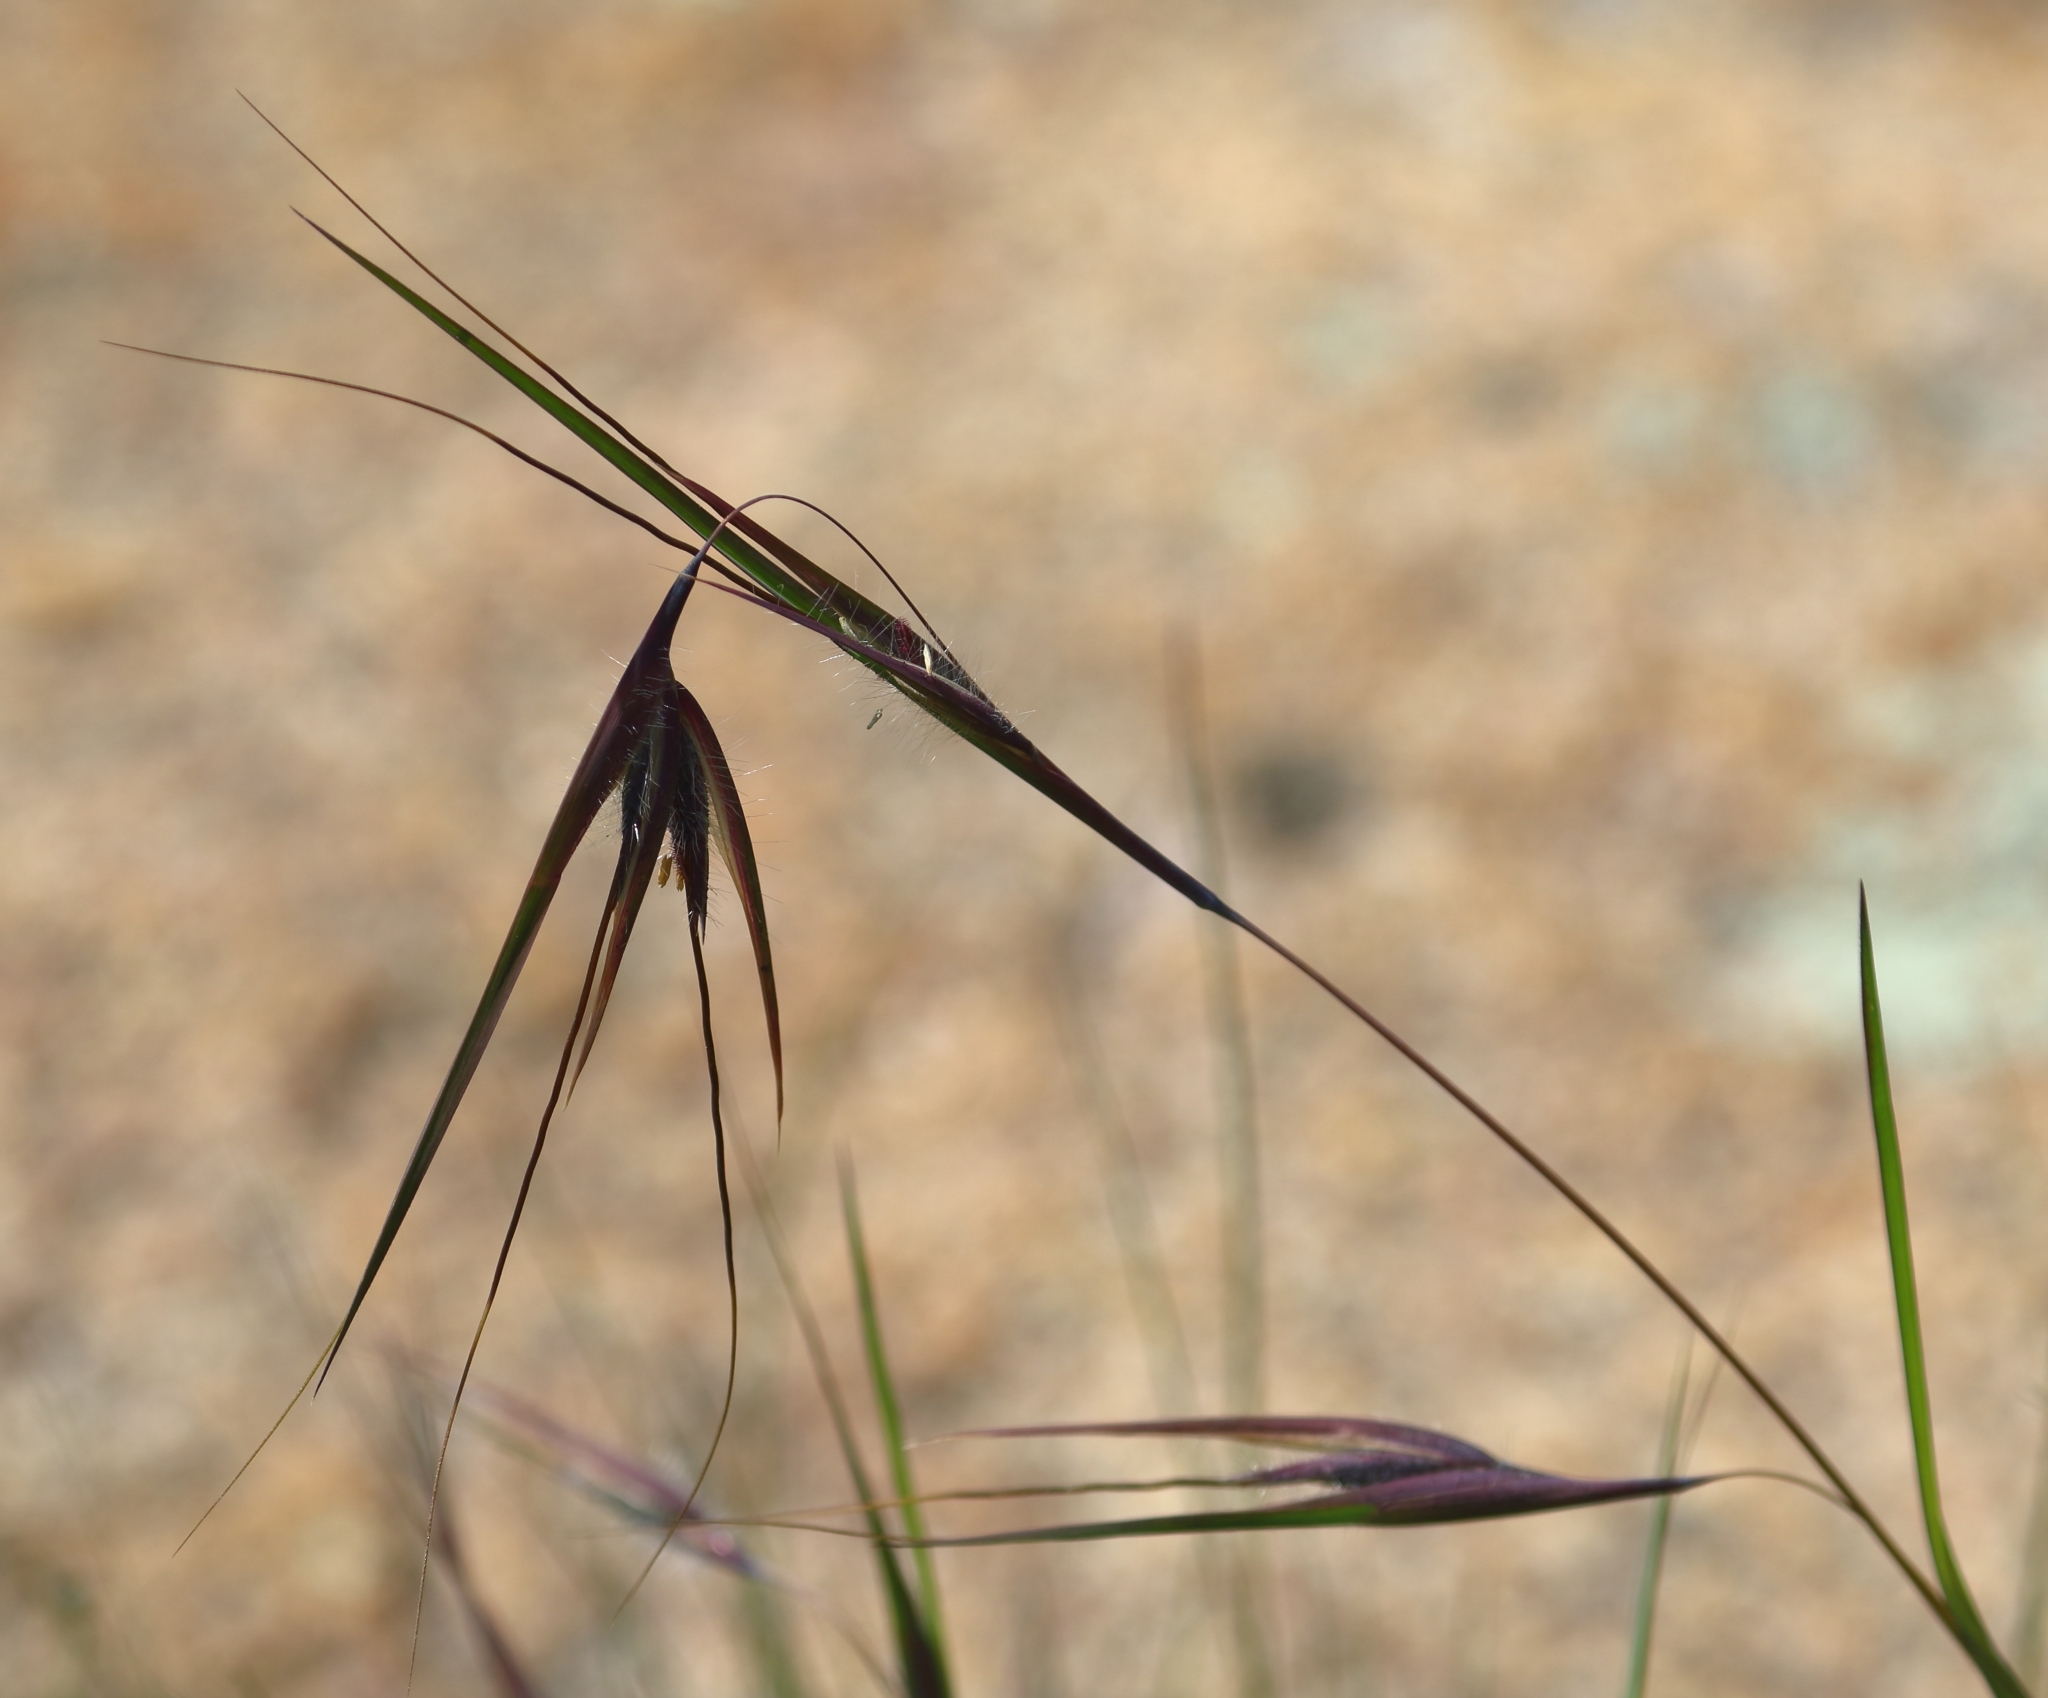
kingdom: Plantae
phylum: Tracheophyta
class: Liliopsida
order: Poales
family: Poaceae
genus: Themeda
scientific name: Themeda triandra
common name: Kangaroo grass
